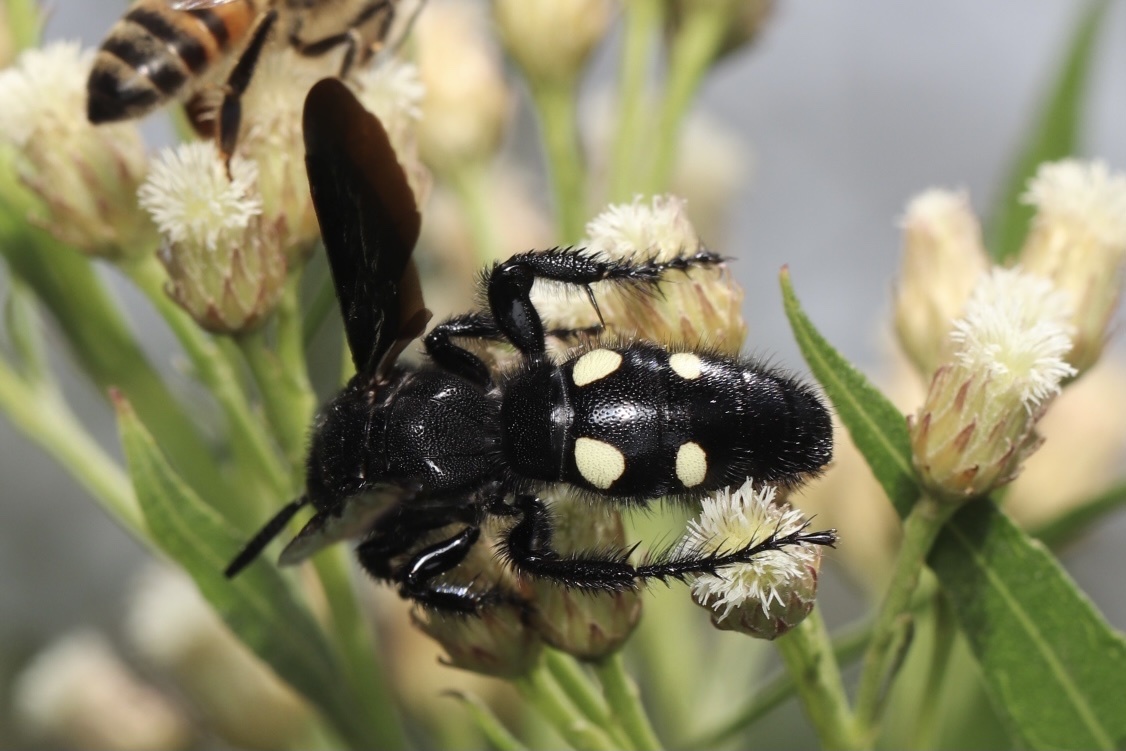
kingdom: Animalia
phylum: Arthropoda
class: Insecta
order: Hymenoptera
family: Scoliidae
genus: Scolia
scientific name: Scolia guttata
